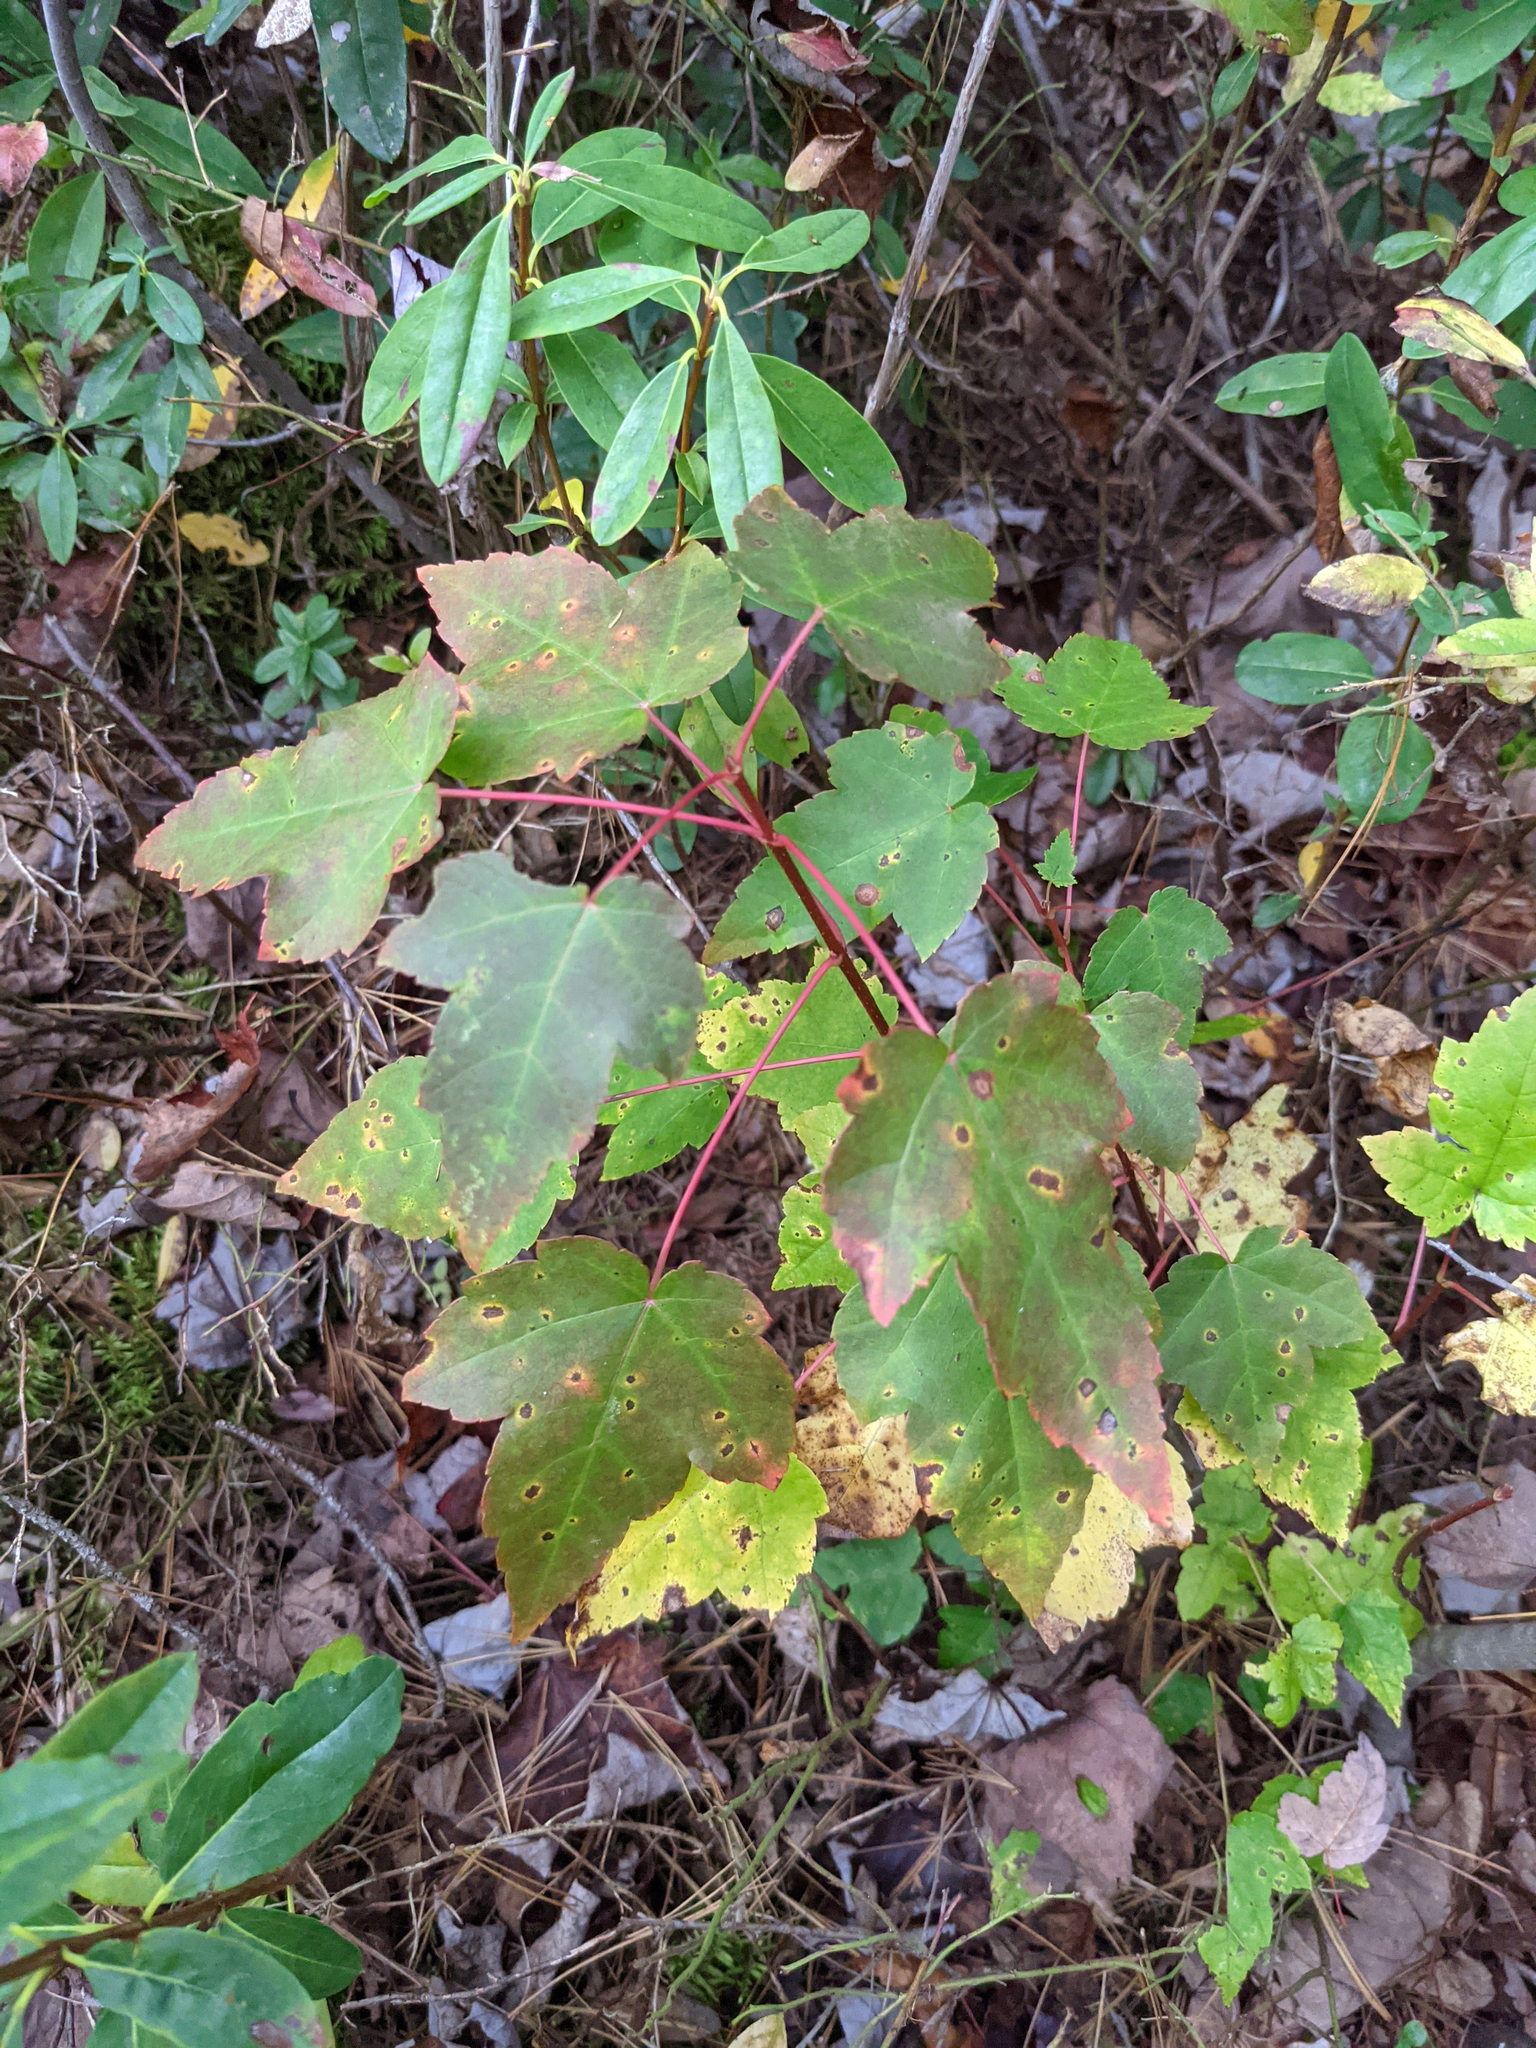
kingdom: Plantae
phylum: Tracheophyta
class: Magnoliopsida
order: Sapindales
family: Sapindaceae
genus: Acer
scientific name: Acer rubrum
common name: Red maple
